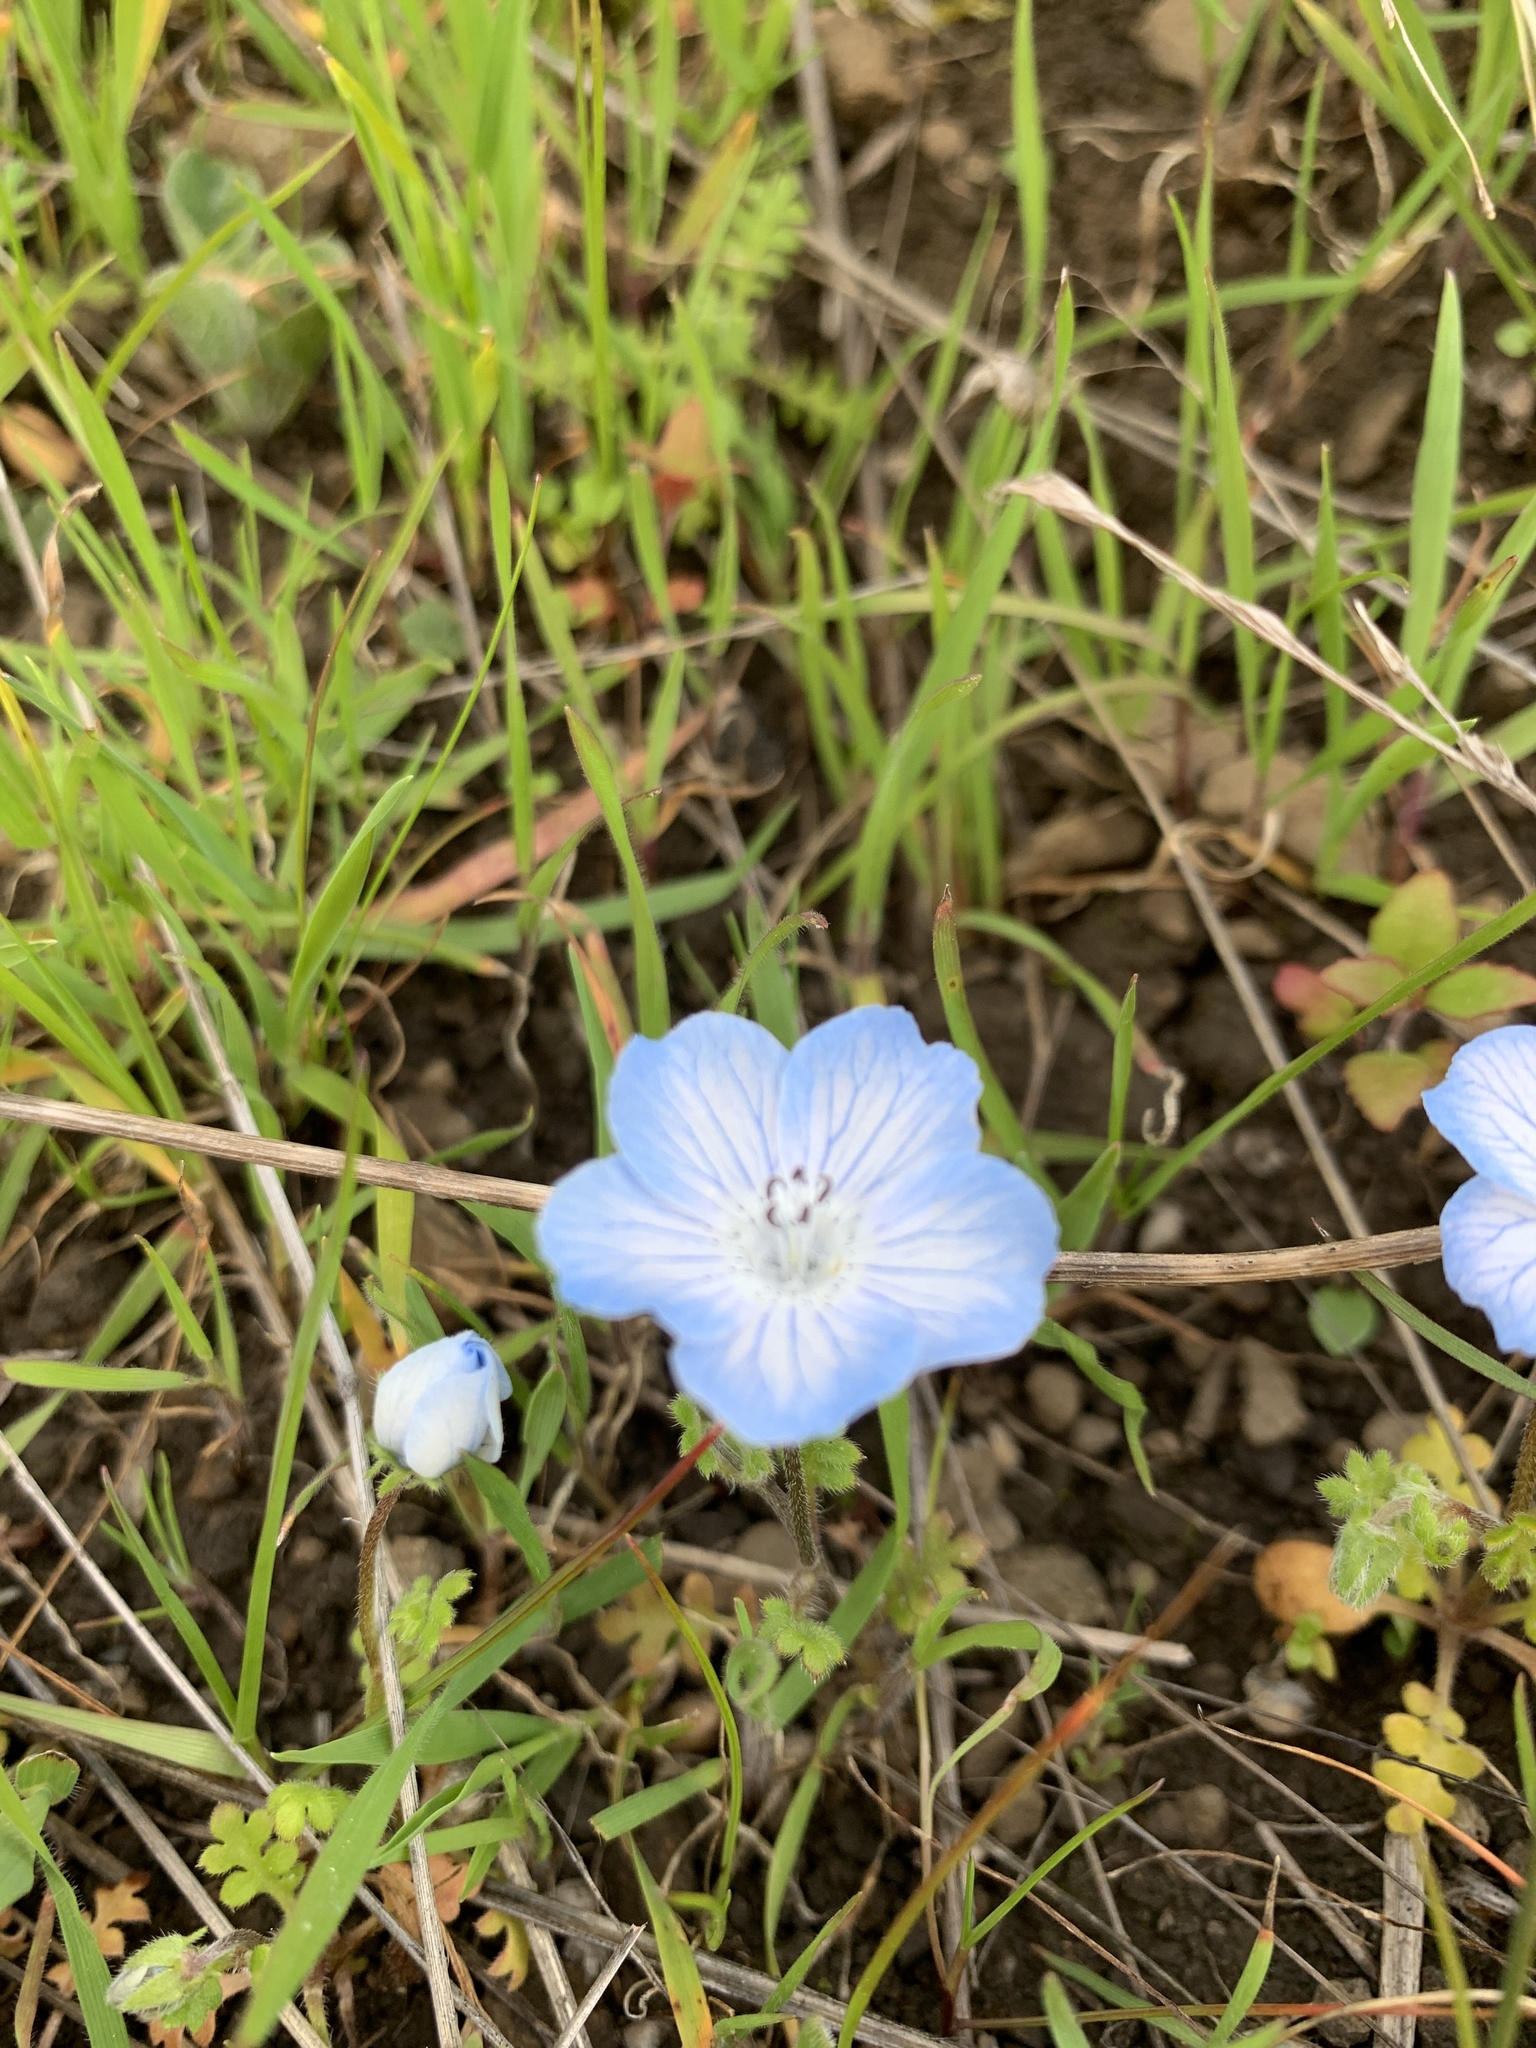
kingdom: Plantae
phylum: Tracheophyta
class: Magnoliopsida
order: Boraginales
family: Hydrophyllaceae
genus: Nemophila
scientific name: Nemophila menziesii
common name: Baby's-blue-eyes
